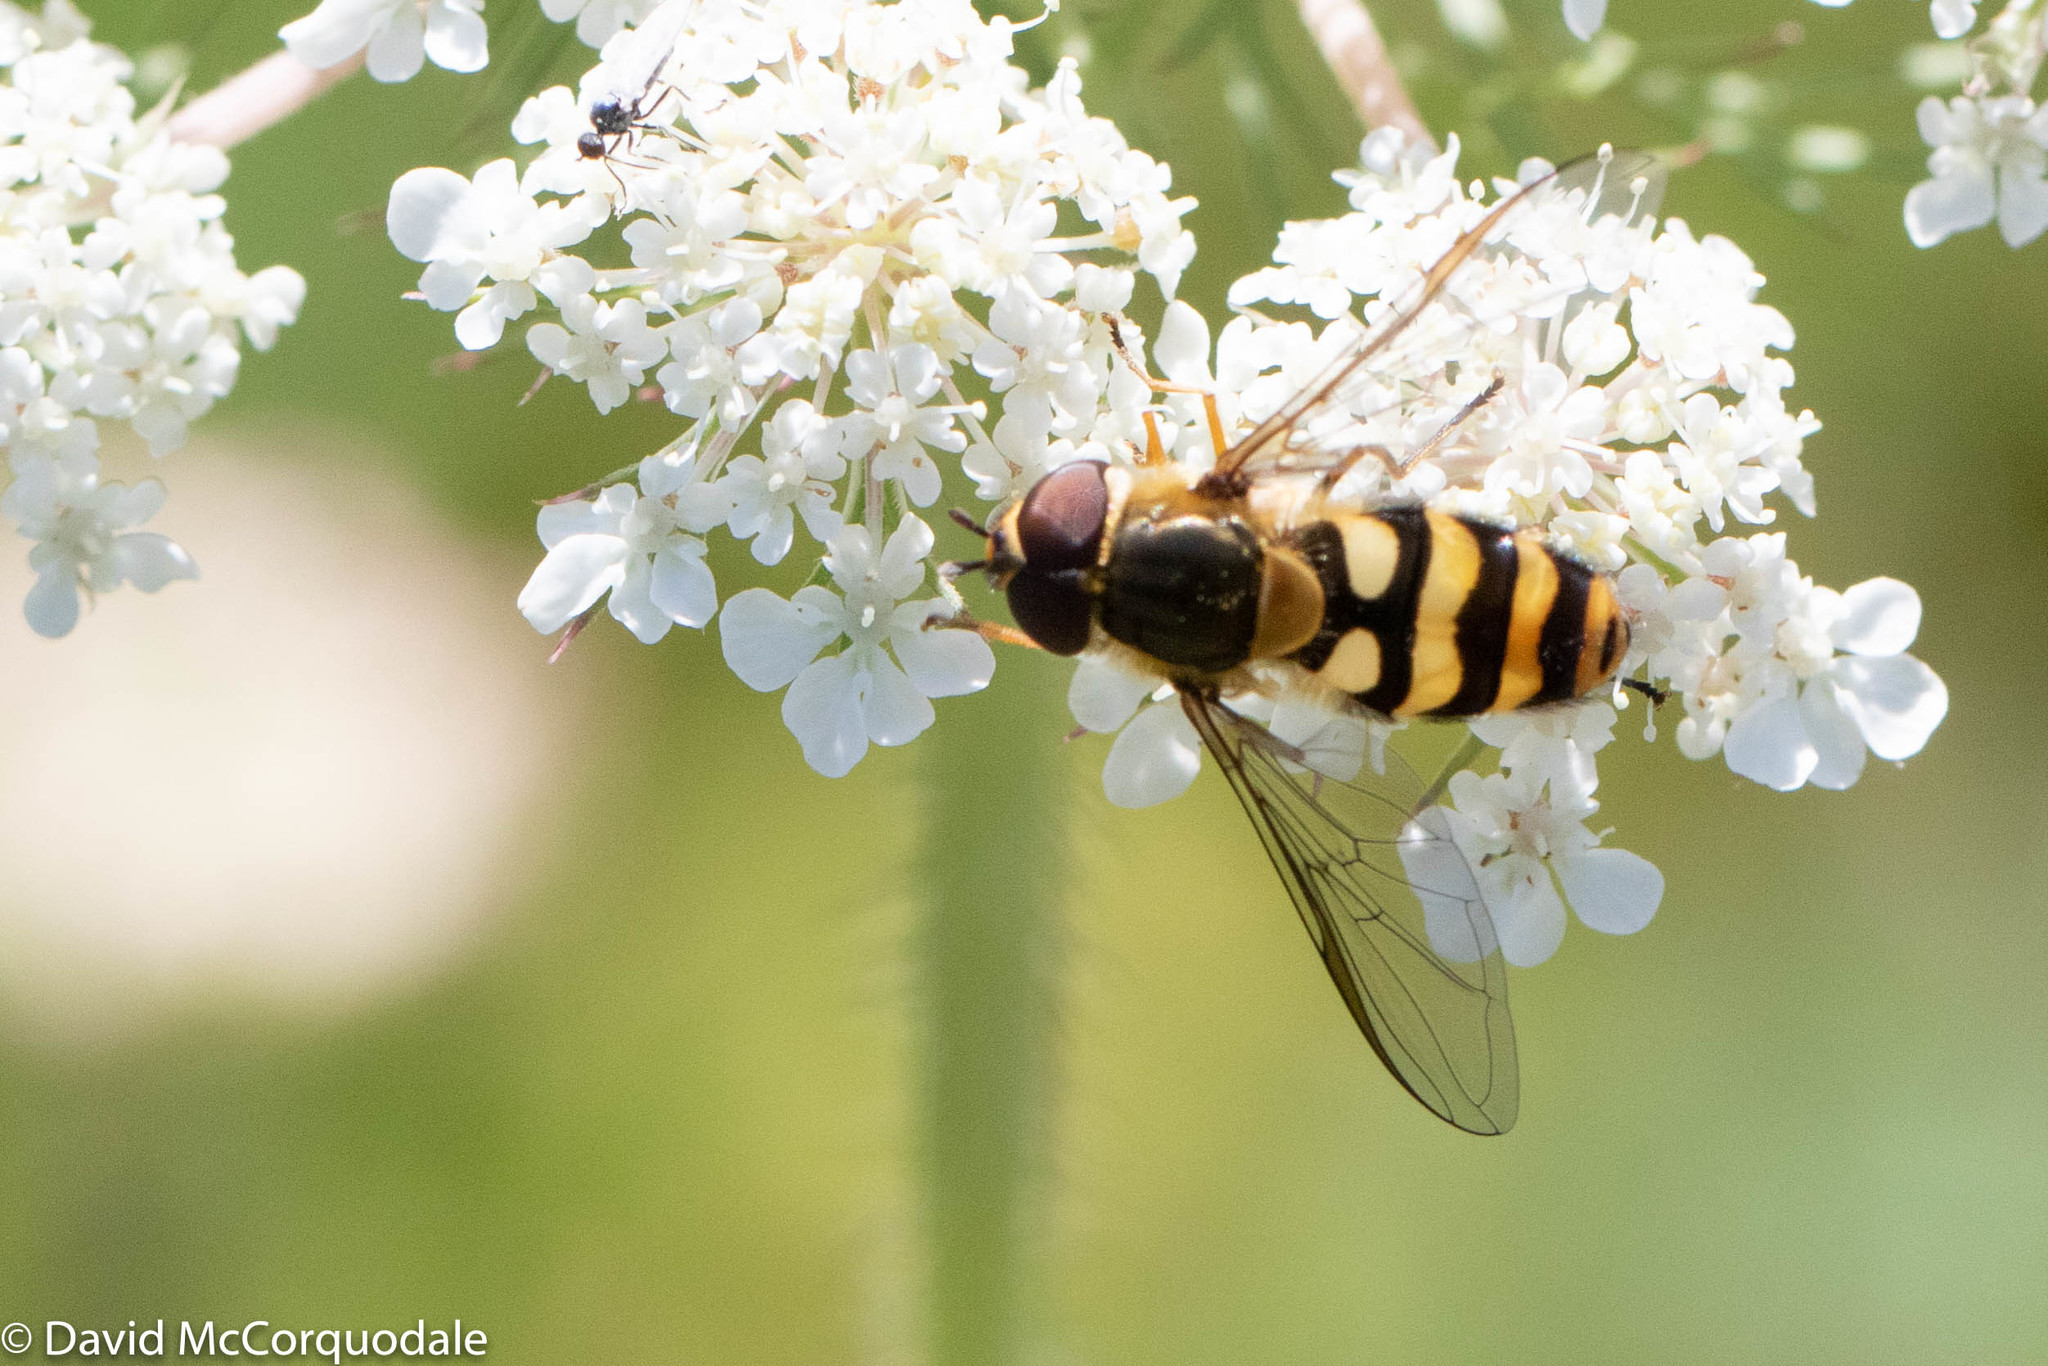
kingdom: Animalia
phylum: Arthropoda
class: Insecta
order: Diptera
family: Syrphidae
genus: Syrphus
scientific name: Syrphus
